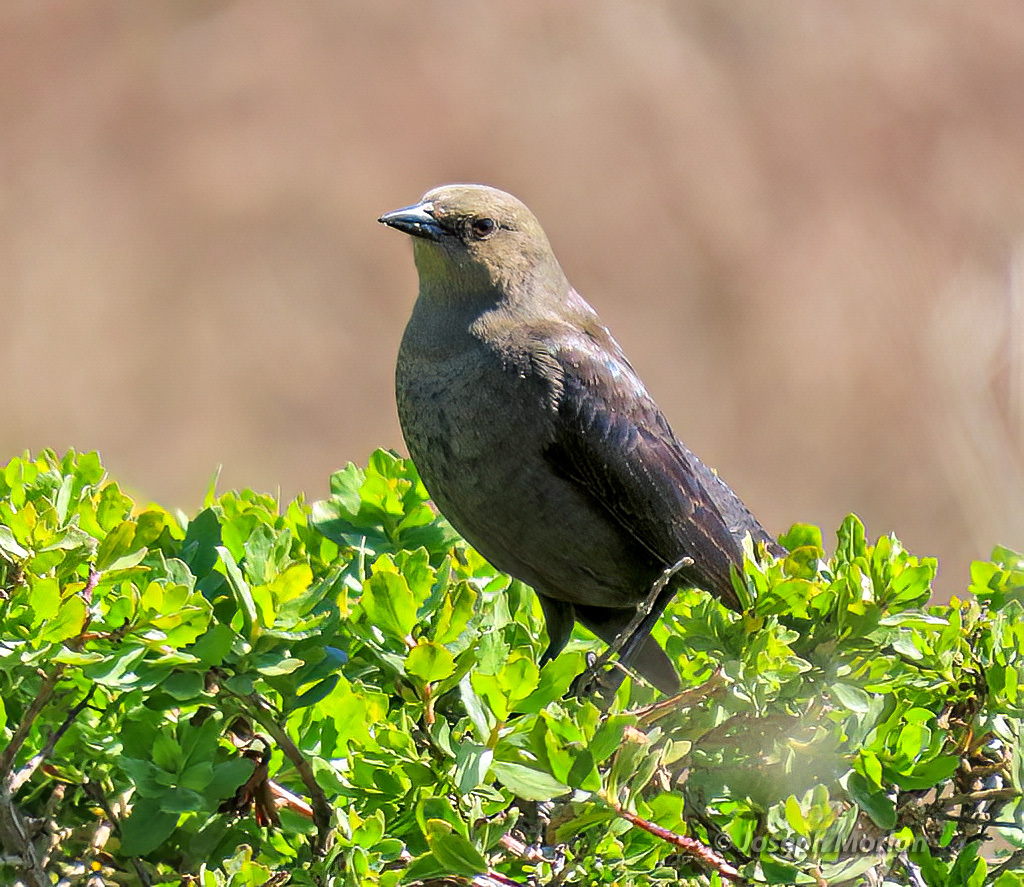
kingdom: Animalia
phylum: Chordata
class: Aves
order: Passeriformes
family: Icteridae
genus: Euphagus
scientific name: Euphagus cyanocephalus
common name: Brewer's blackbird
